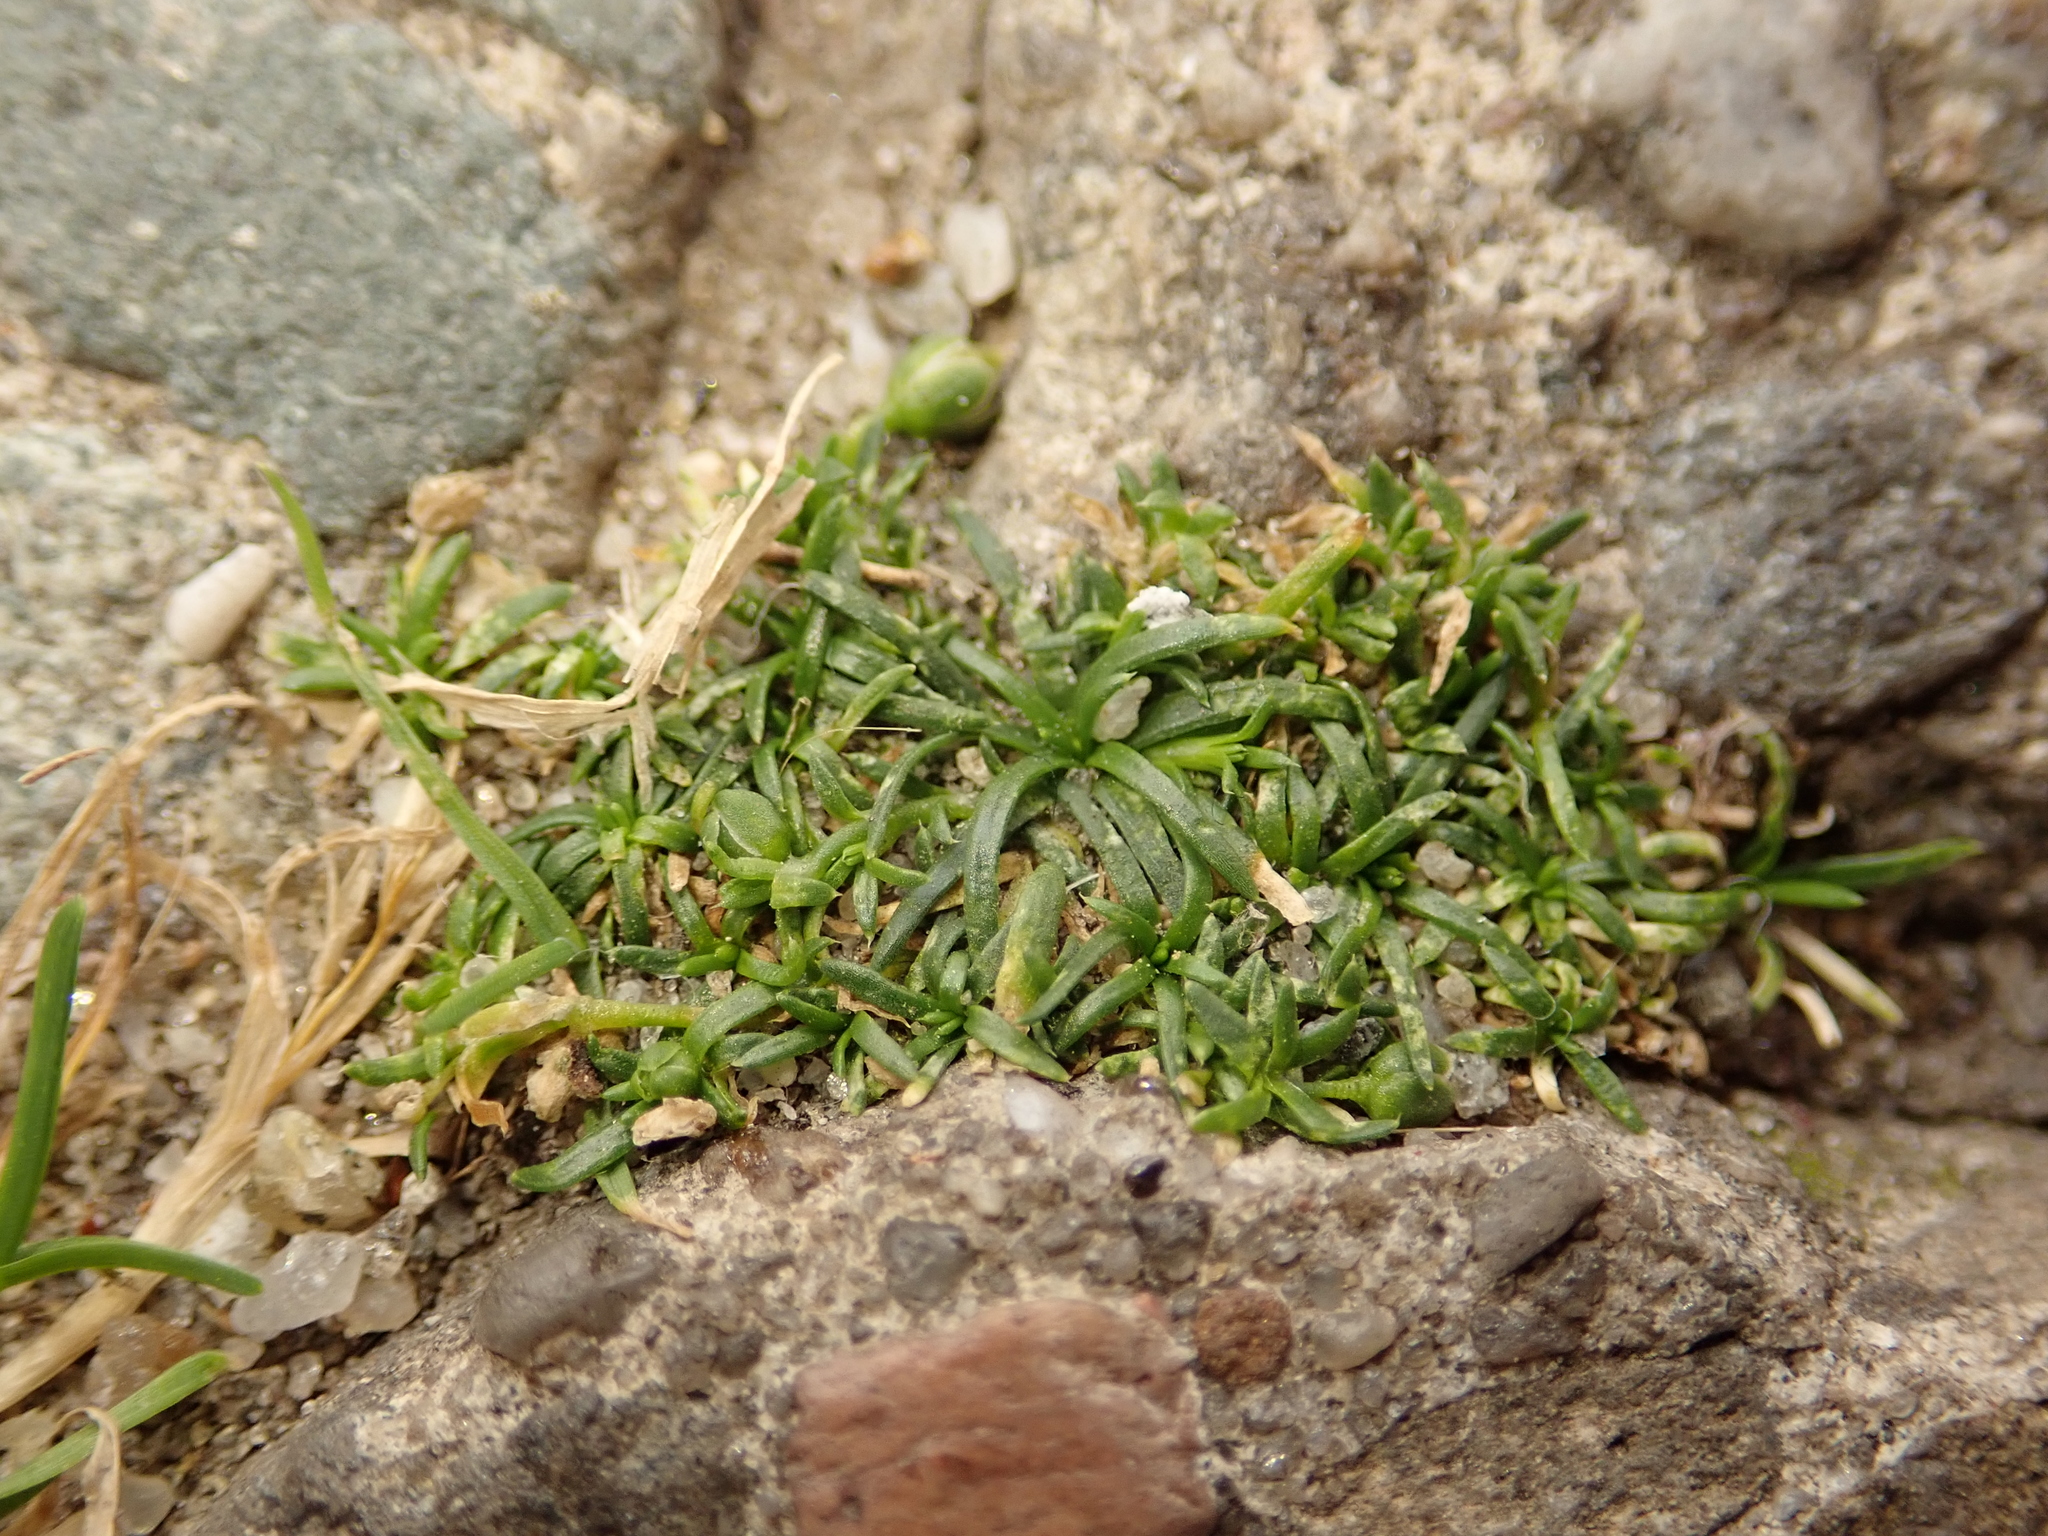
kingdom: Plantae
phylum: Tracheophyta
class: Magnoliopsida
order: Caryophyllales
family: Caryophyllaceae
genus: Sagina
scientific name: Sagina procumbens
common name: Procumbent pearlwort
